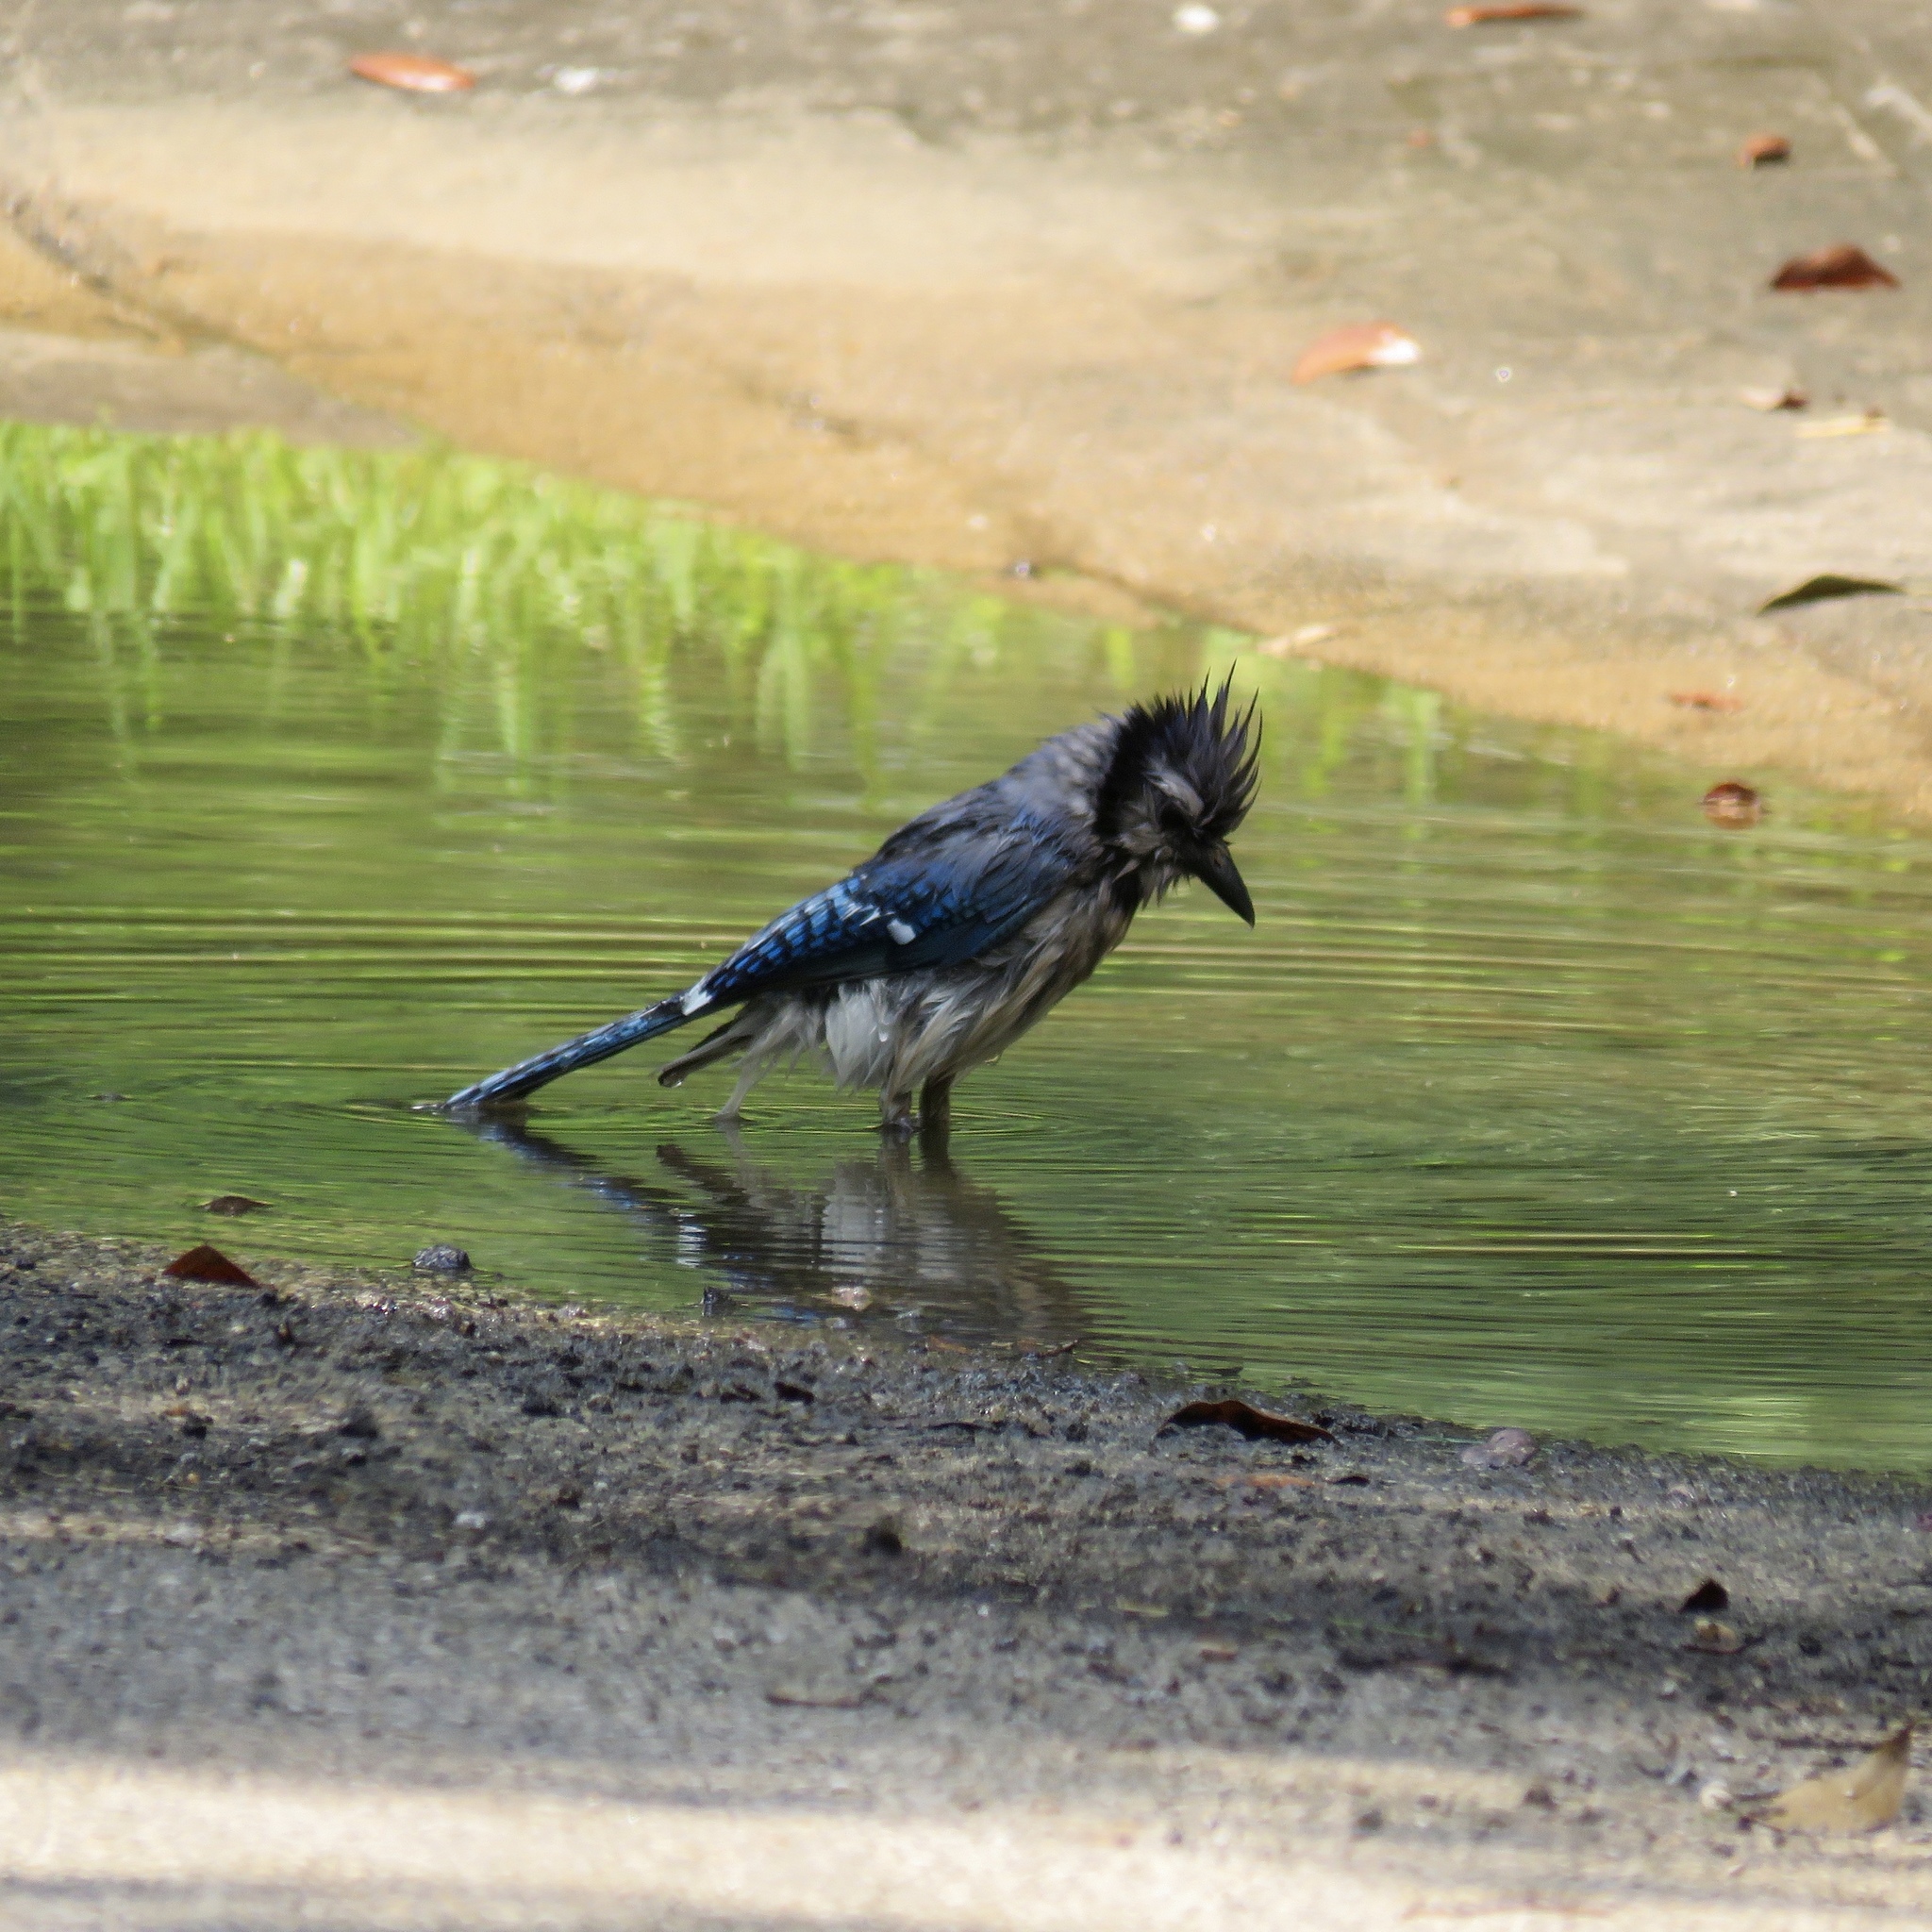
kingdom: Animalia
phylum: Chordata
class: Aves
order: Passeriformes
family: Corvidae
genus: Cyanocitta
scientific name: Cyanocitta cristata
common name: Blue jay
